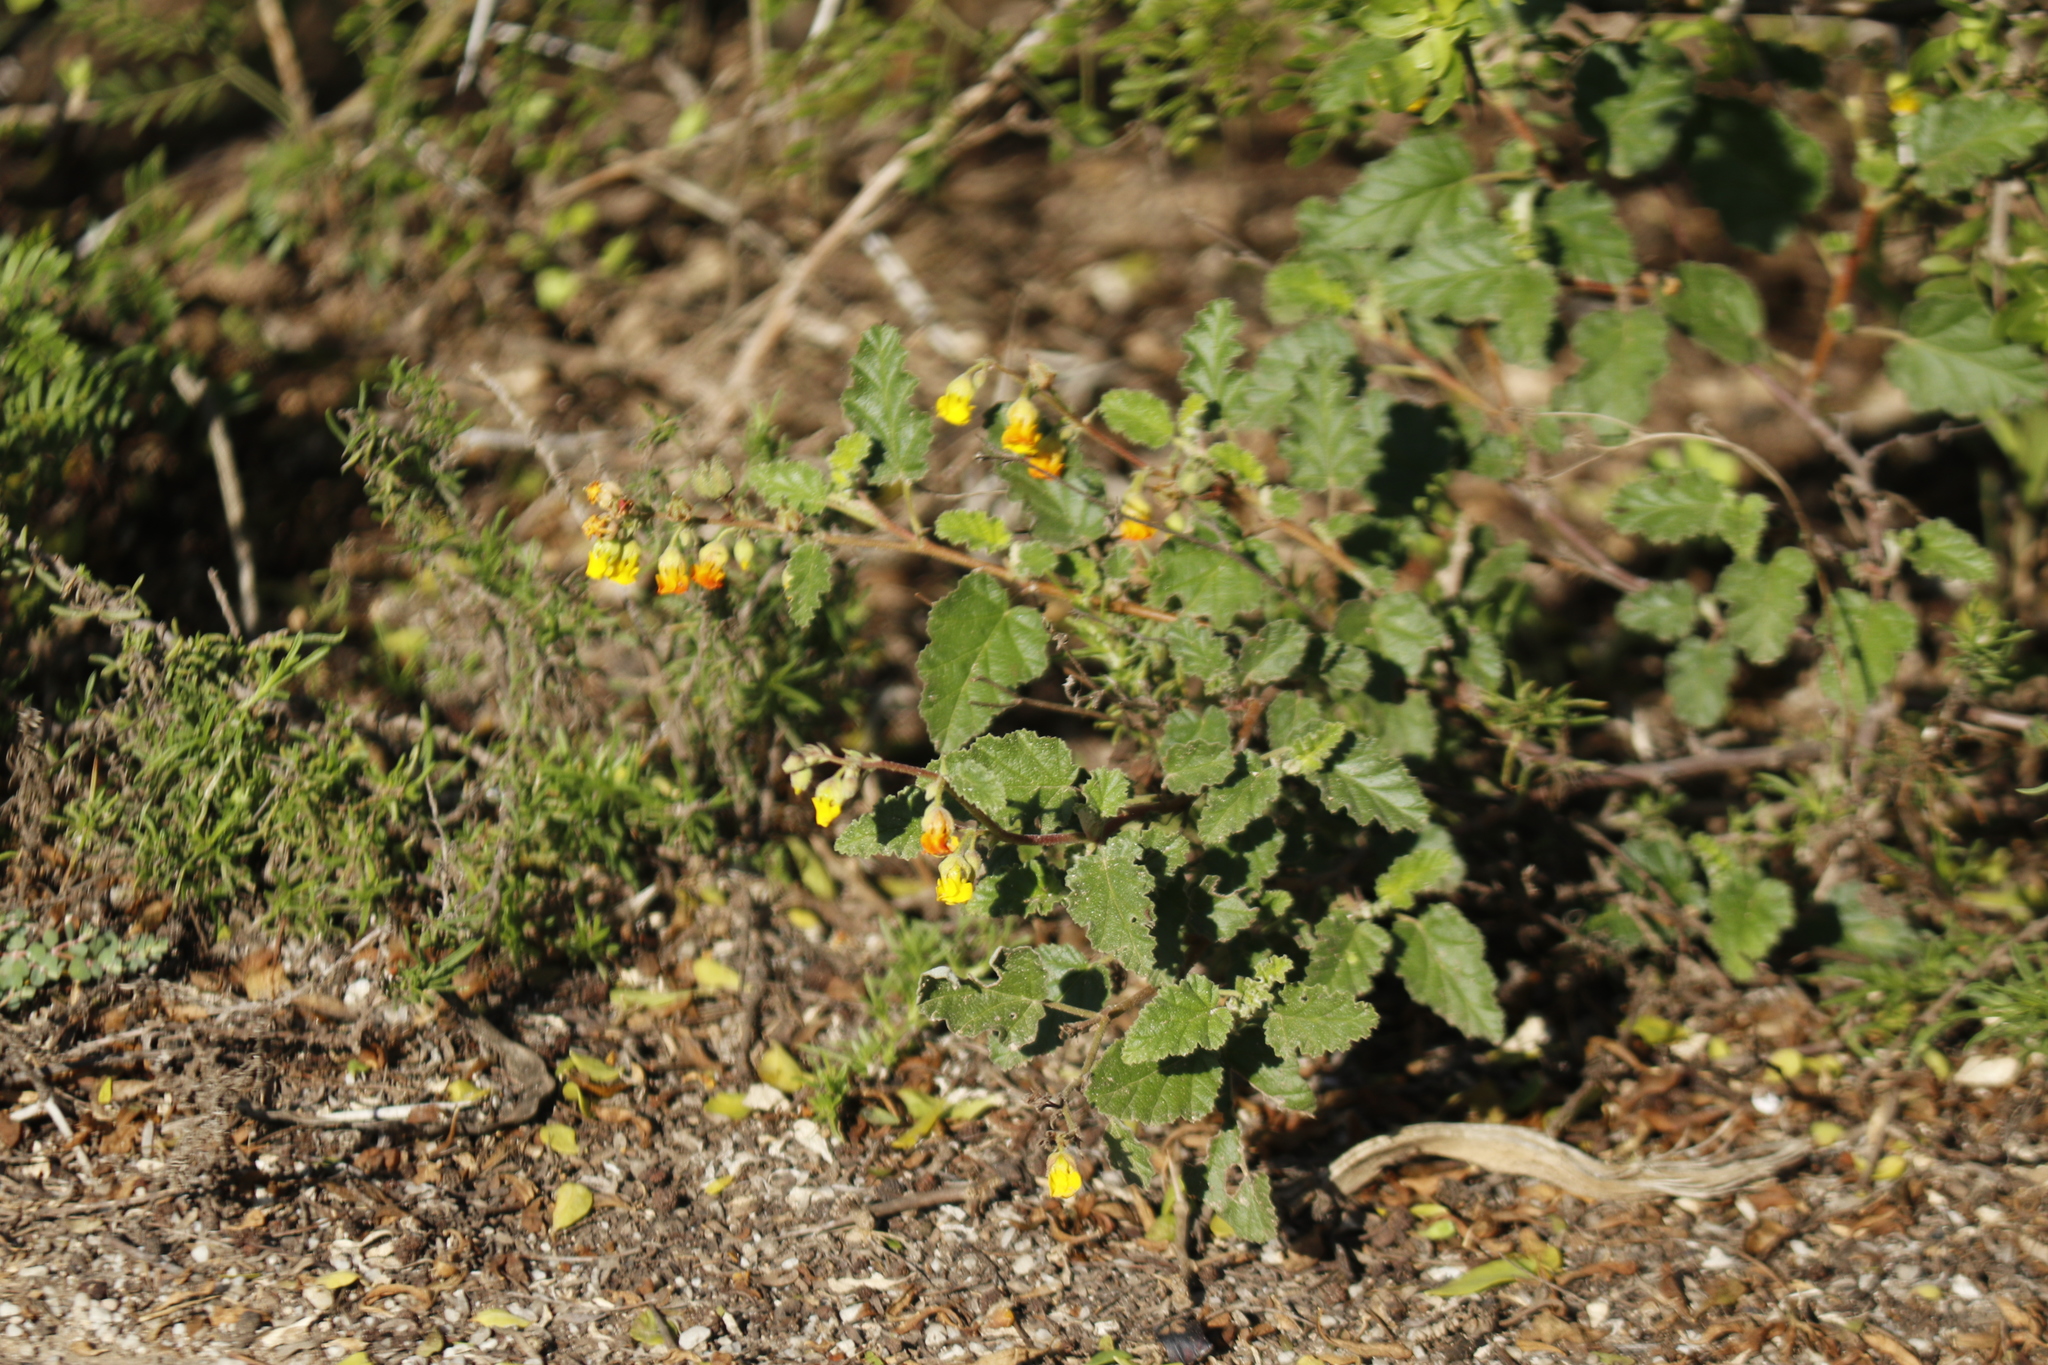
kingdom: Plantae
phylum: Tracheophyta
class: Magnoliopsida
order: Malvales
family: Malvaceae
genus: Hermannia
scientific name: Hermannia althaeoides
